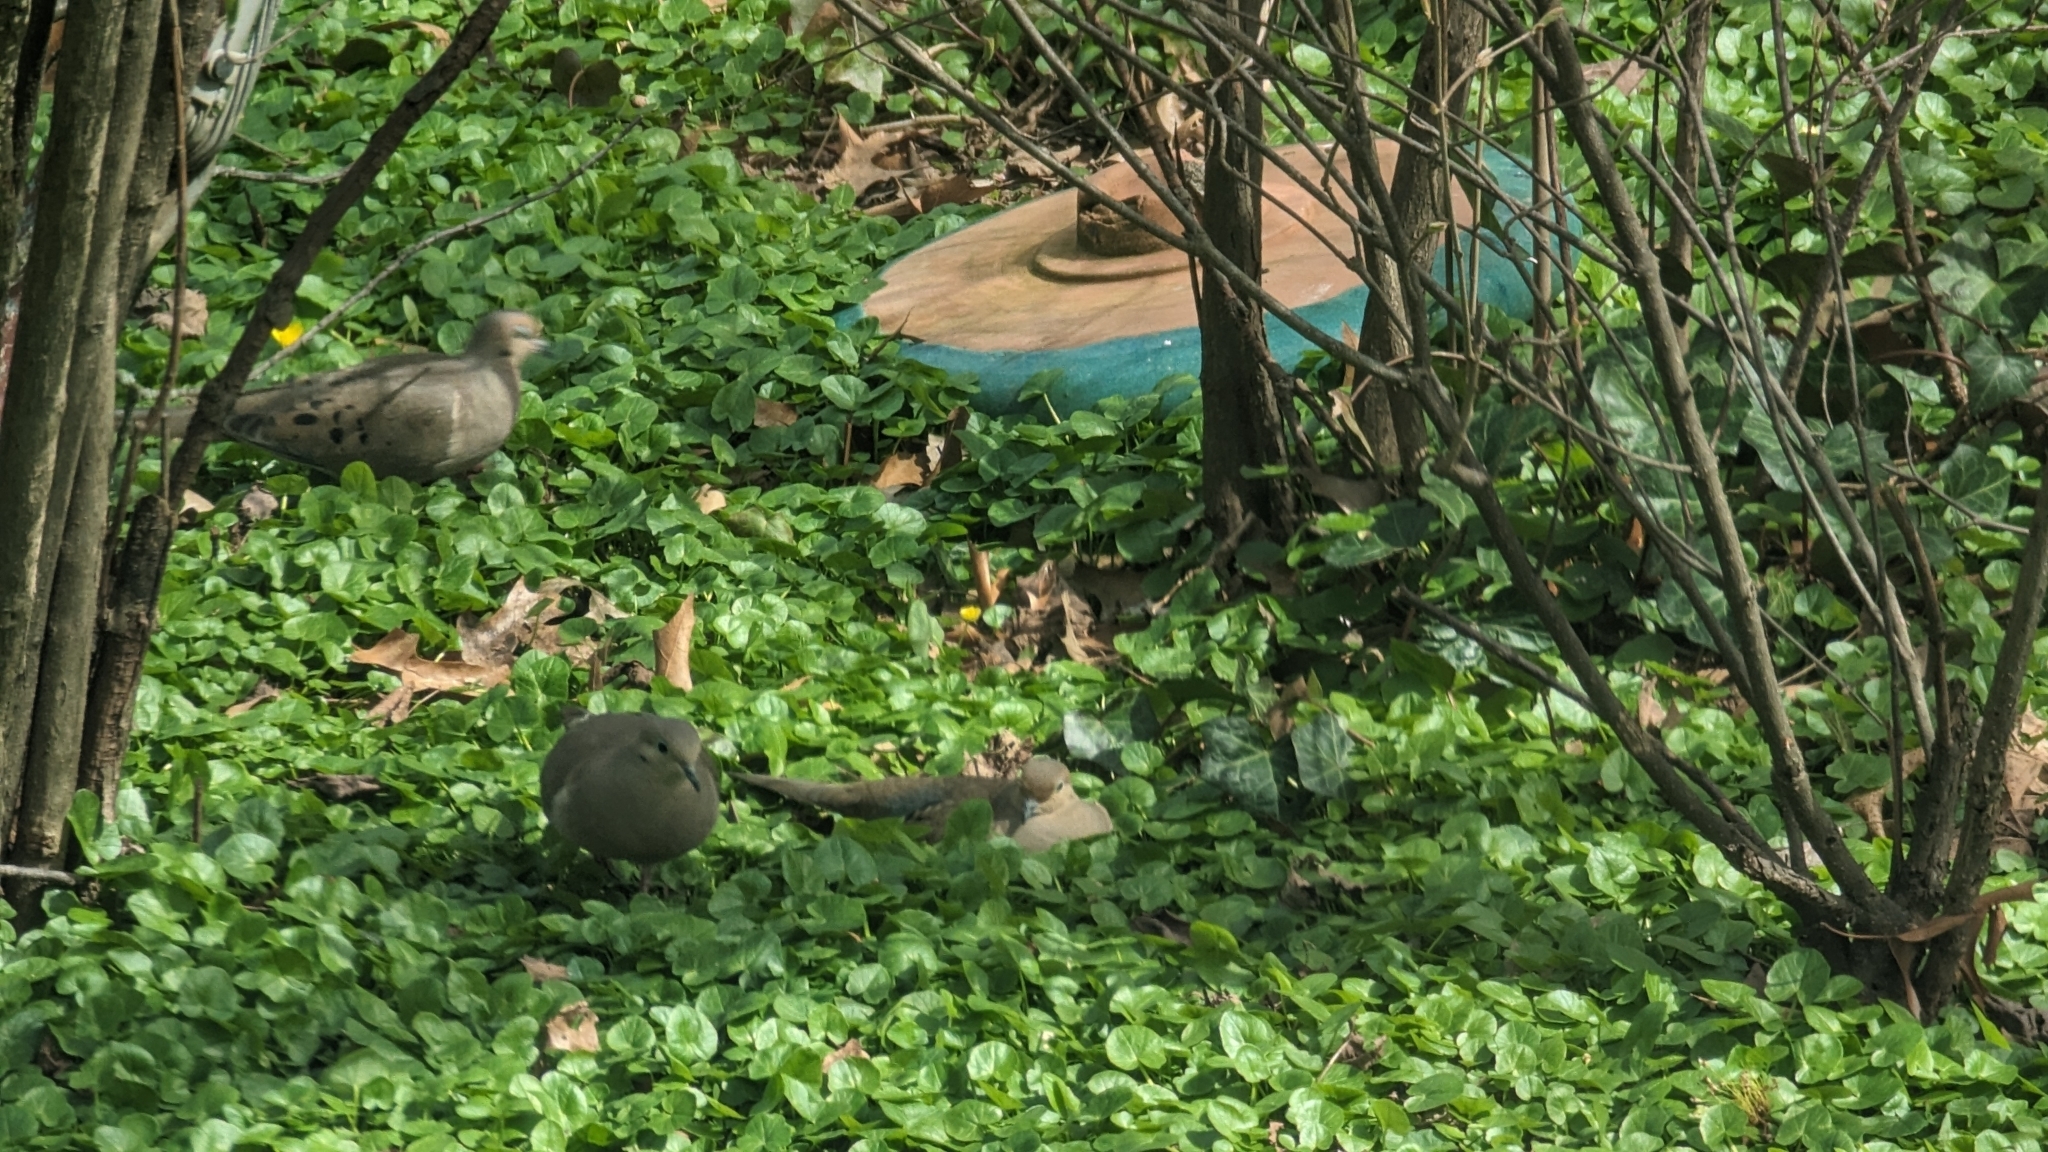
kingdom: Animalia
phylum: Chordata
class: Aves
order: Columbiformes
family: Columbidae
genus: Zenaida
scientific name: Zenaida macroura
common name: Mourning dove
